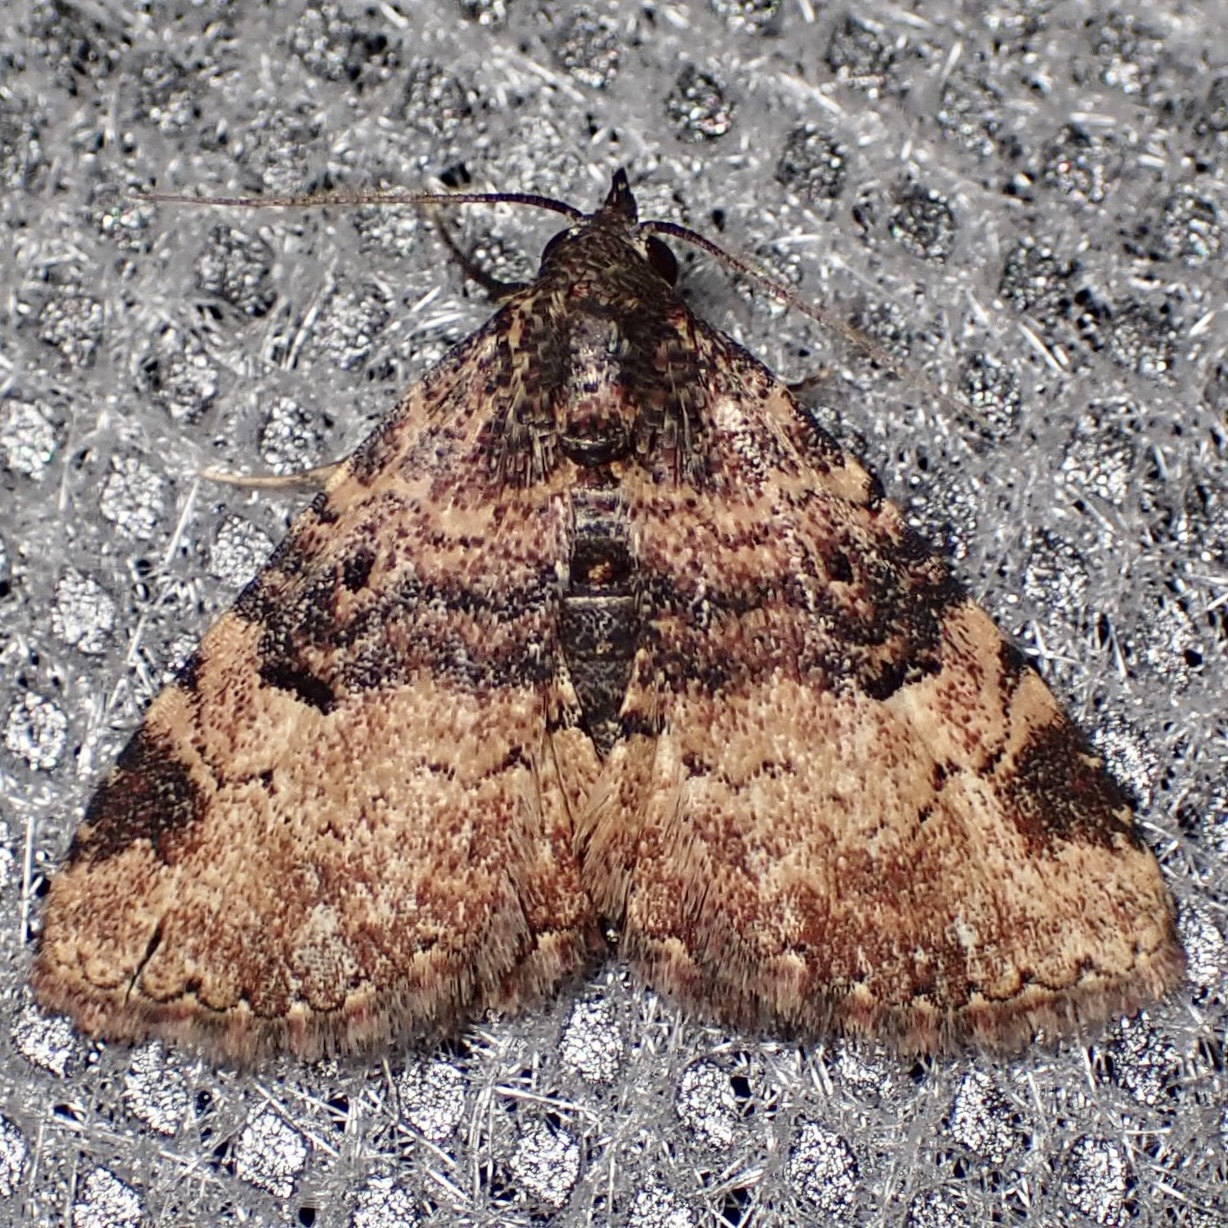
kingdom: Animalia
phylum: Arthropoda
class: Insecta
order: Lepidoptera
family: Erebidae
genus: Metalectra
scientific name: Metalectra edilis
